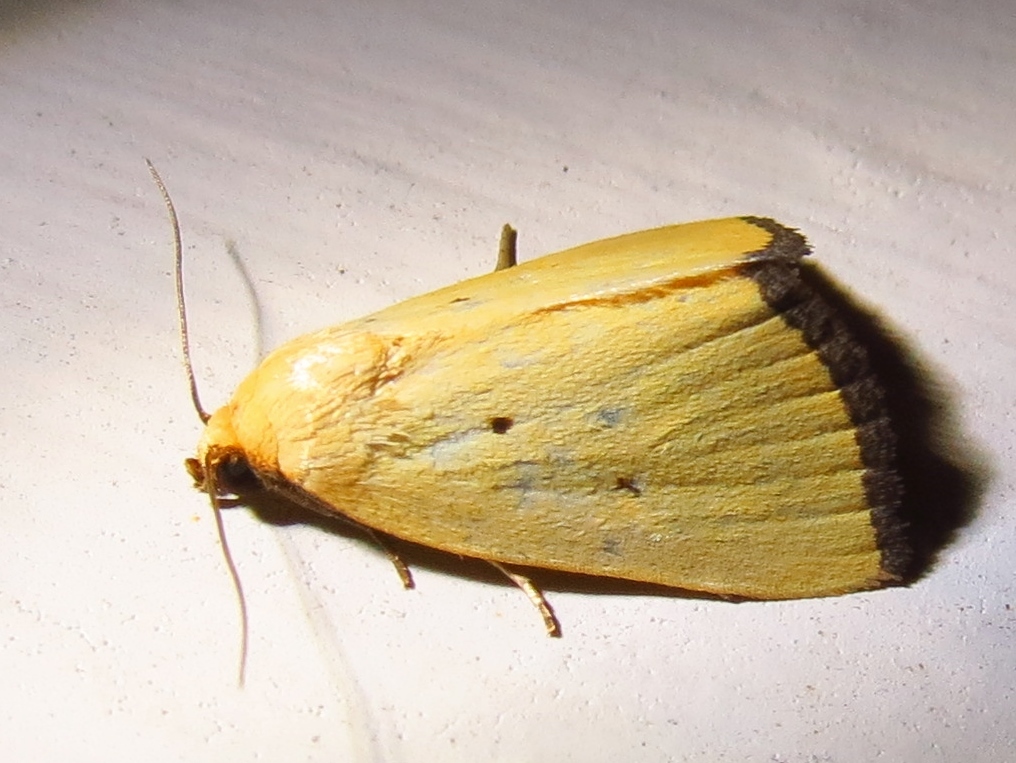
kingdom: Animalia
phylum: Arthropoda
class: Insecta
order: Lepidoptera
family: Noctuidae
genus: Marimatha
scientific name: Marimatha nigrofimbria
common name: Black-bordered lemon moth
